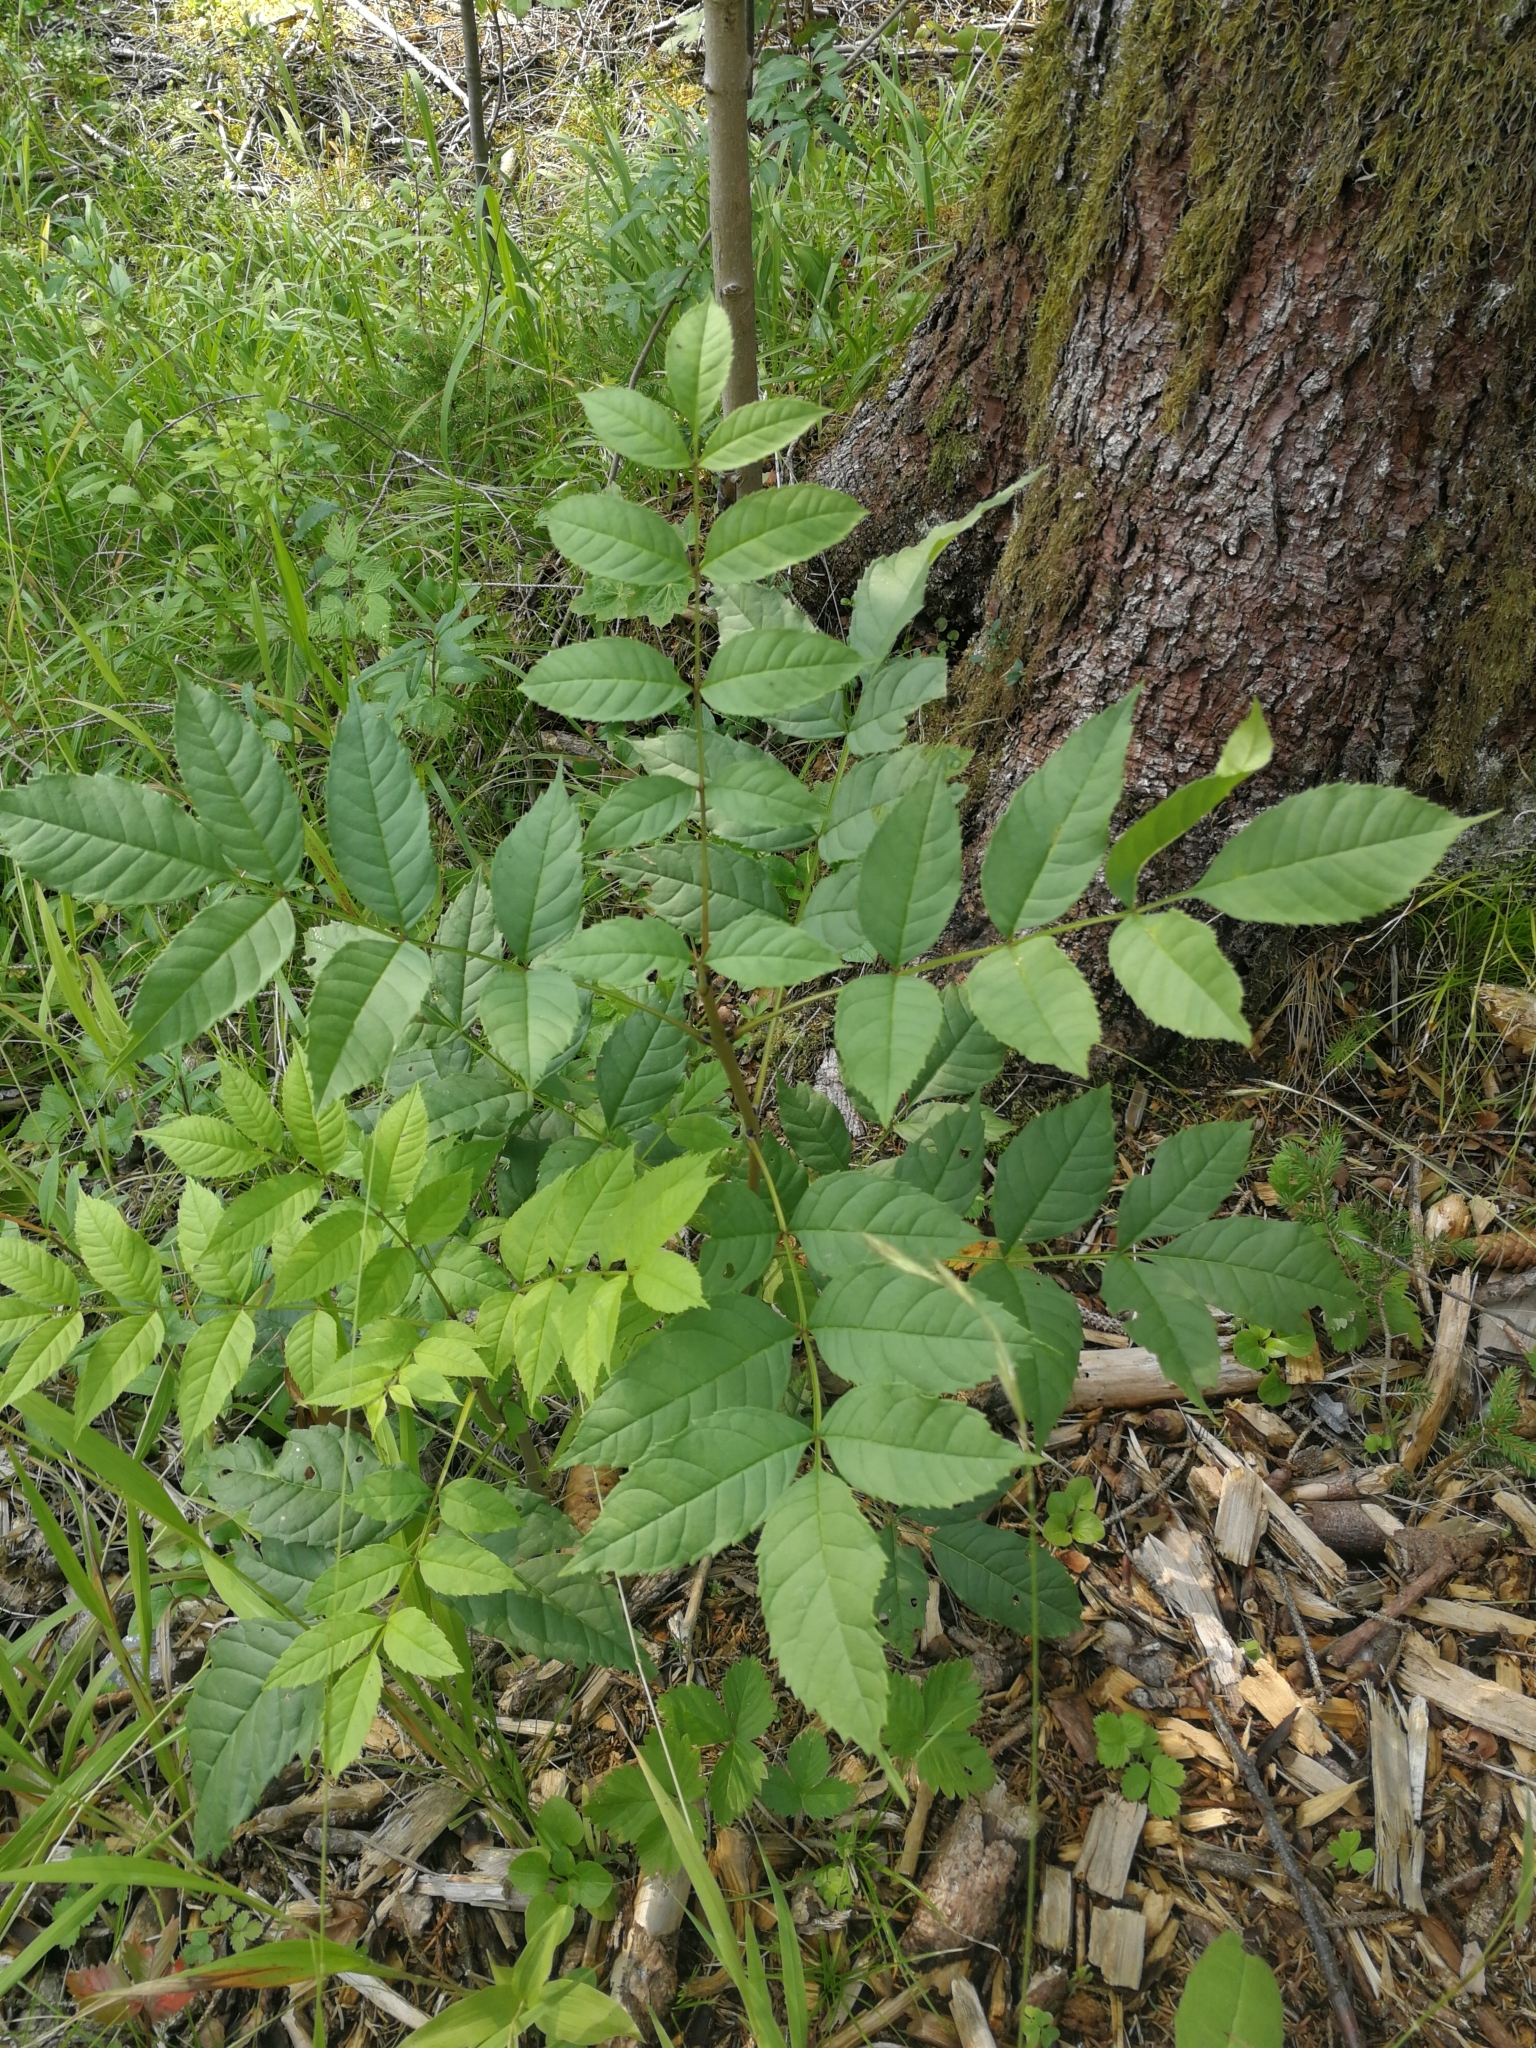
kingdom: Plantae
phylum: Tracheophyta
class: Magnoliopsida
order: Lamiales
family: Oleaceae
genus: Fraxinus
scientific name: Fraxinus excelsior
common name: European ash
